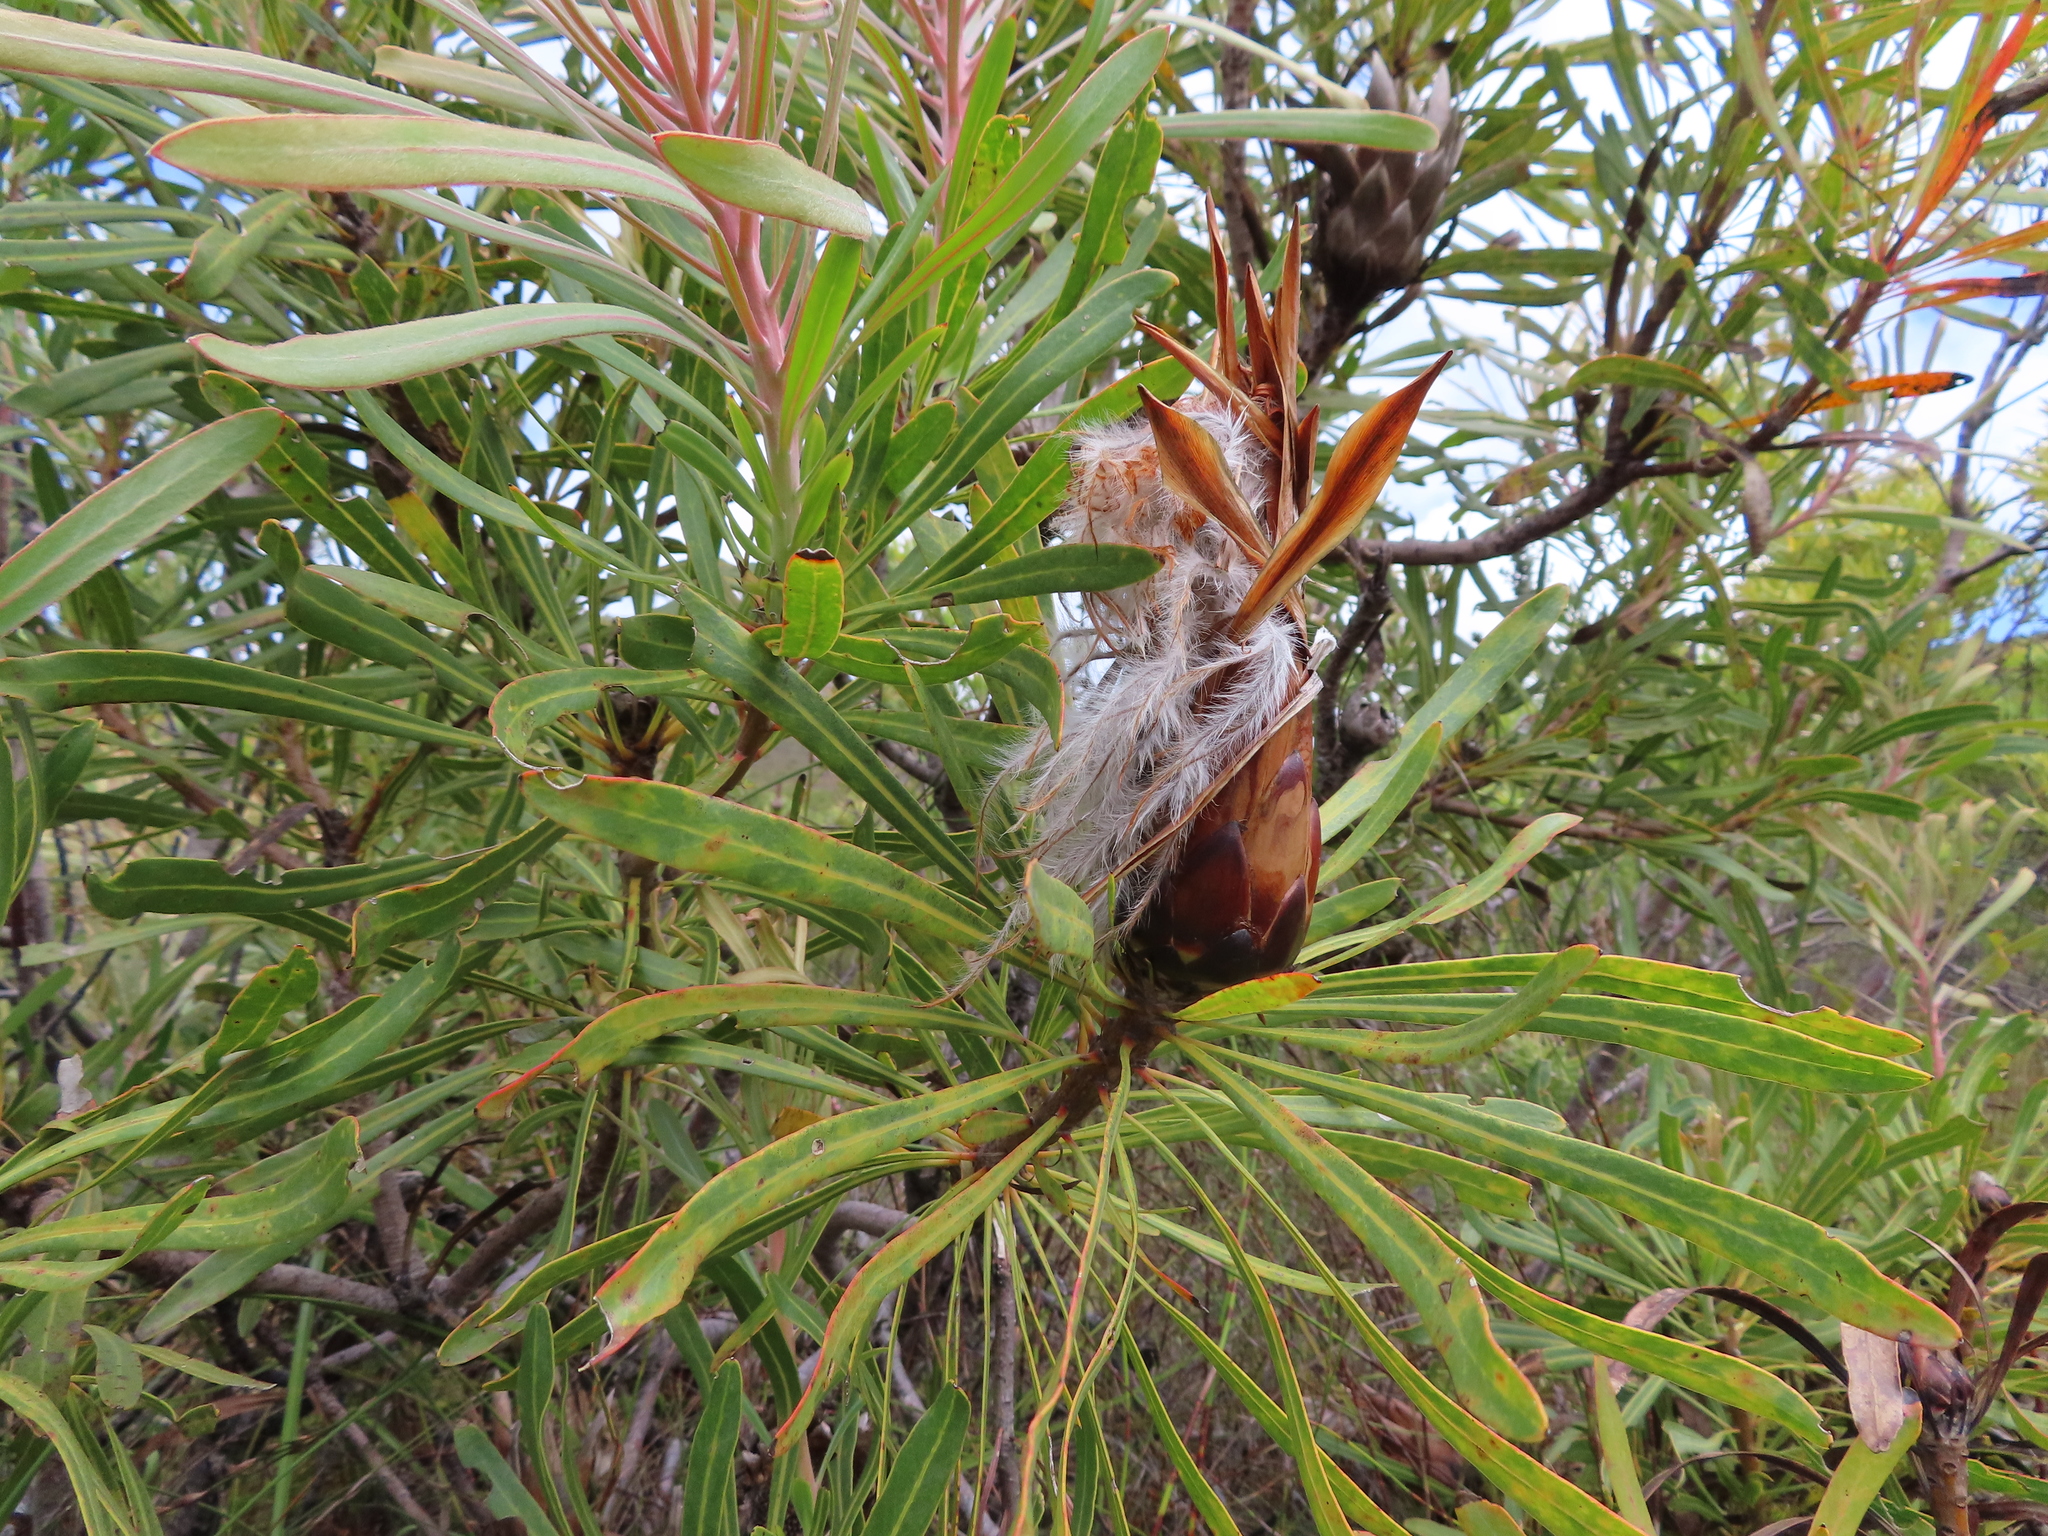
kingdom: Plantae
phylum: Tracheophyta
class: Magnoliopsida
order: Proteales
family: Proteaceae
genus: Protea
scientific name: Protea longifolia
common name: Long-leaf sugarbush
